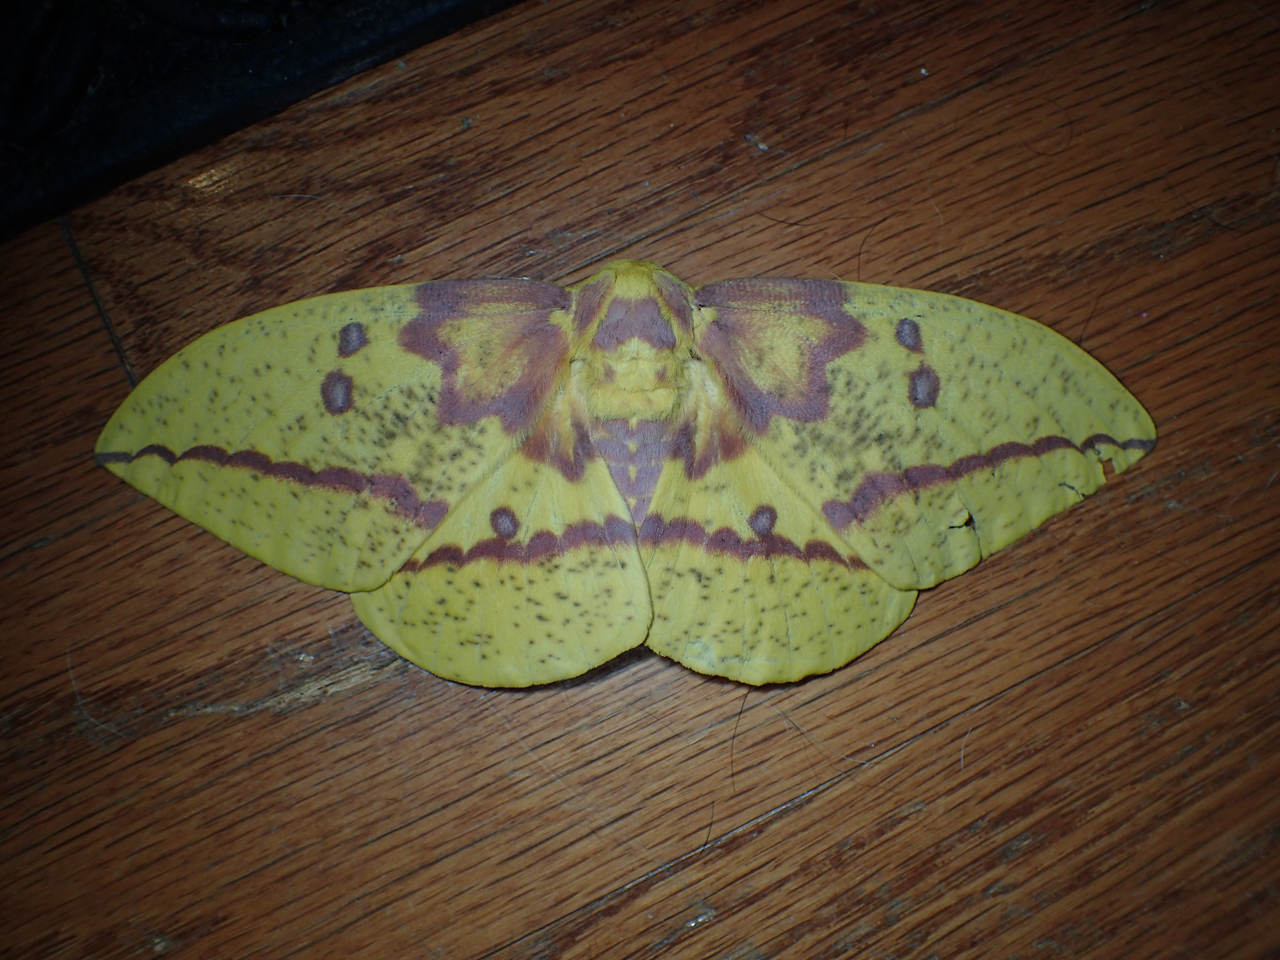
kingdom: Animalia
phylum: Arthropoda
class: Insecta
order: Lepidoptera
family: Saturniidae
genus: Eacles
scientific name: Eacles imperialis
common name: Imperial moth
